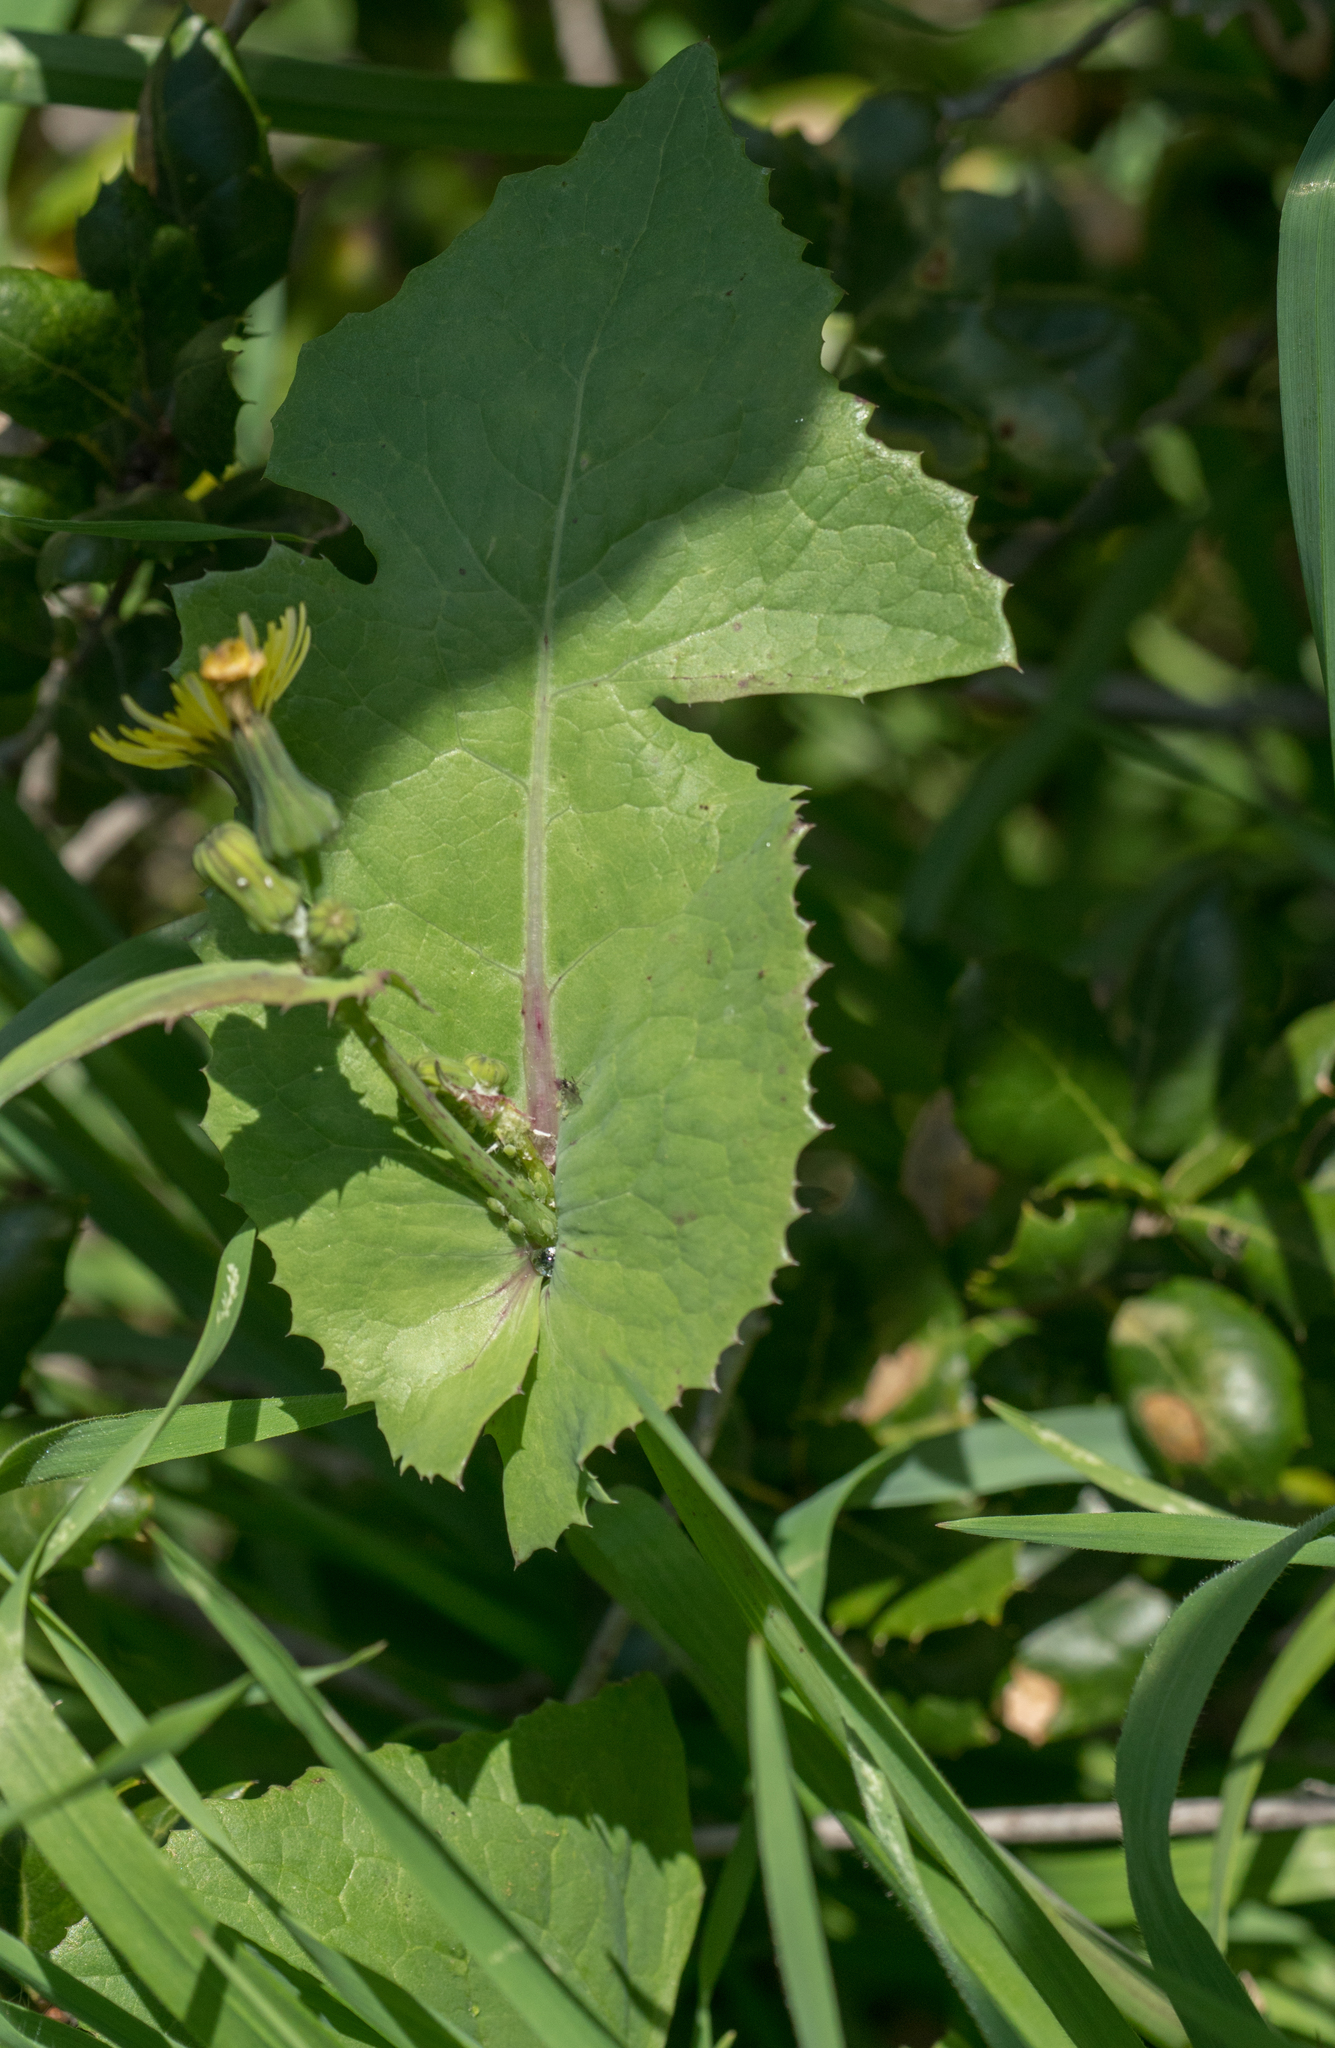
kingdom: Plantae
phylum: Tracheophyta
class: Magnoliopsida
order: Asterales
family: Asteraceae
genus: Sonchus
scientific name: Sonchus oleraceus
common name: Common sowthistle
